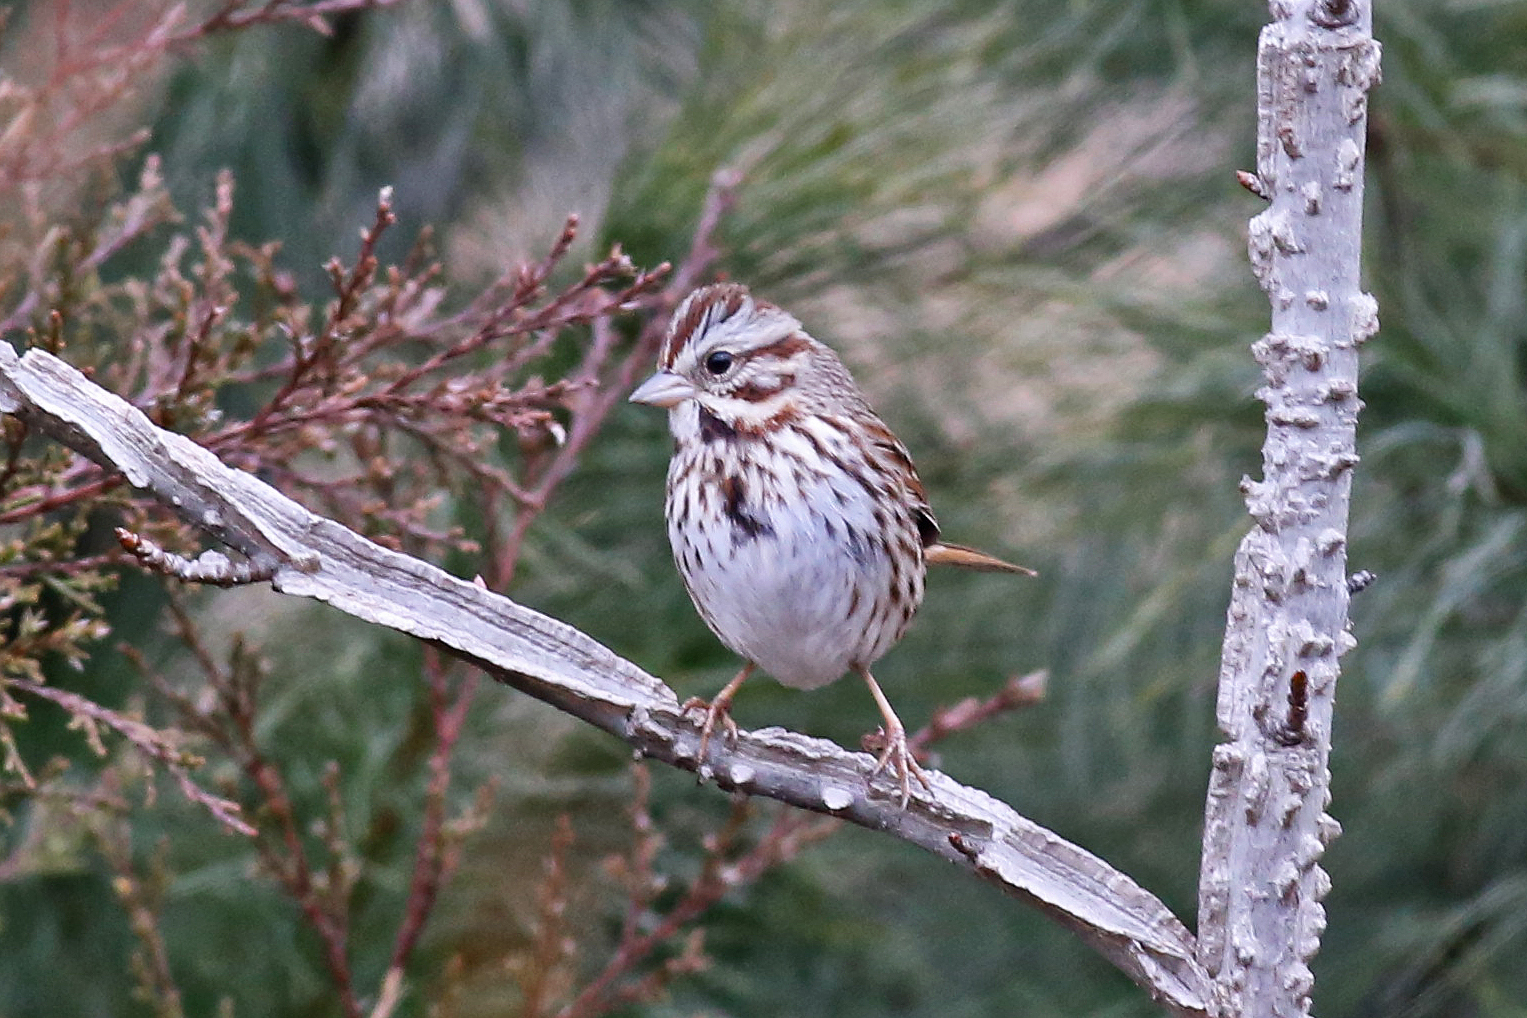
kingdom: Animalia
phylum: Chordata
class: Aves
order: Passeriformes
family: Passerellidae
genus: Melospiza
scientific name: Melospiza melodia
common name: Song sparrow
